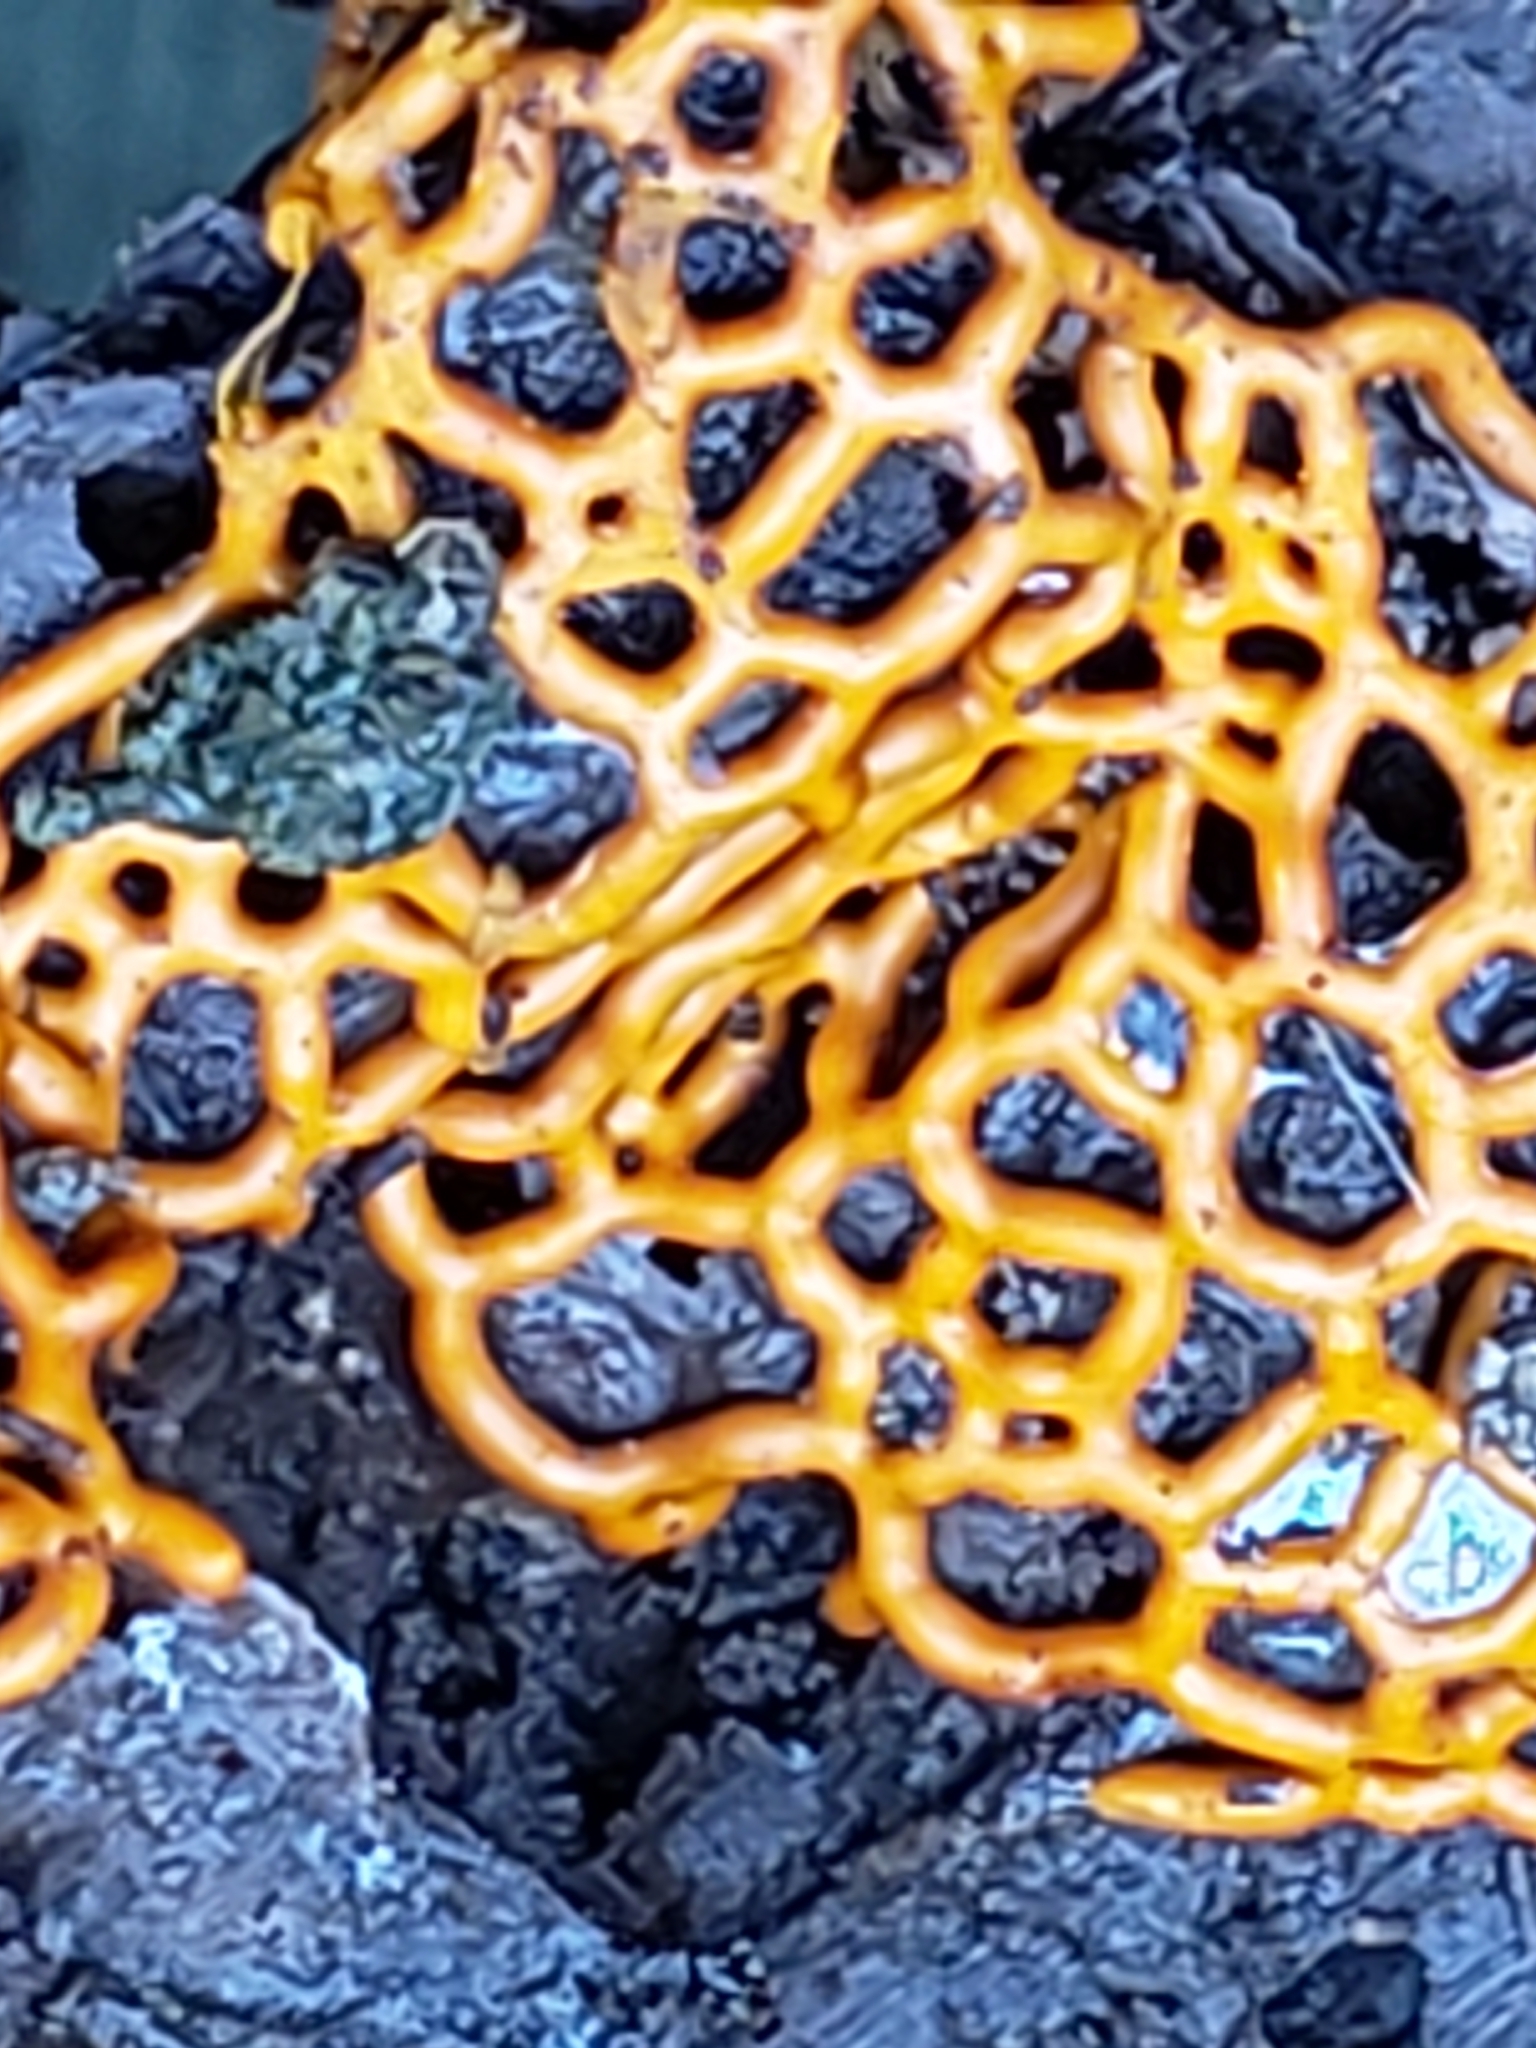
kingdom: Protozoa
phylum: Mycetozoa
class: Myxomycetes
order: Trichiales
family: Arcyriaceae
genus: Hemitrichia
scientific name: Hemitrichia serpula
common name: Pretzel slime mold
